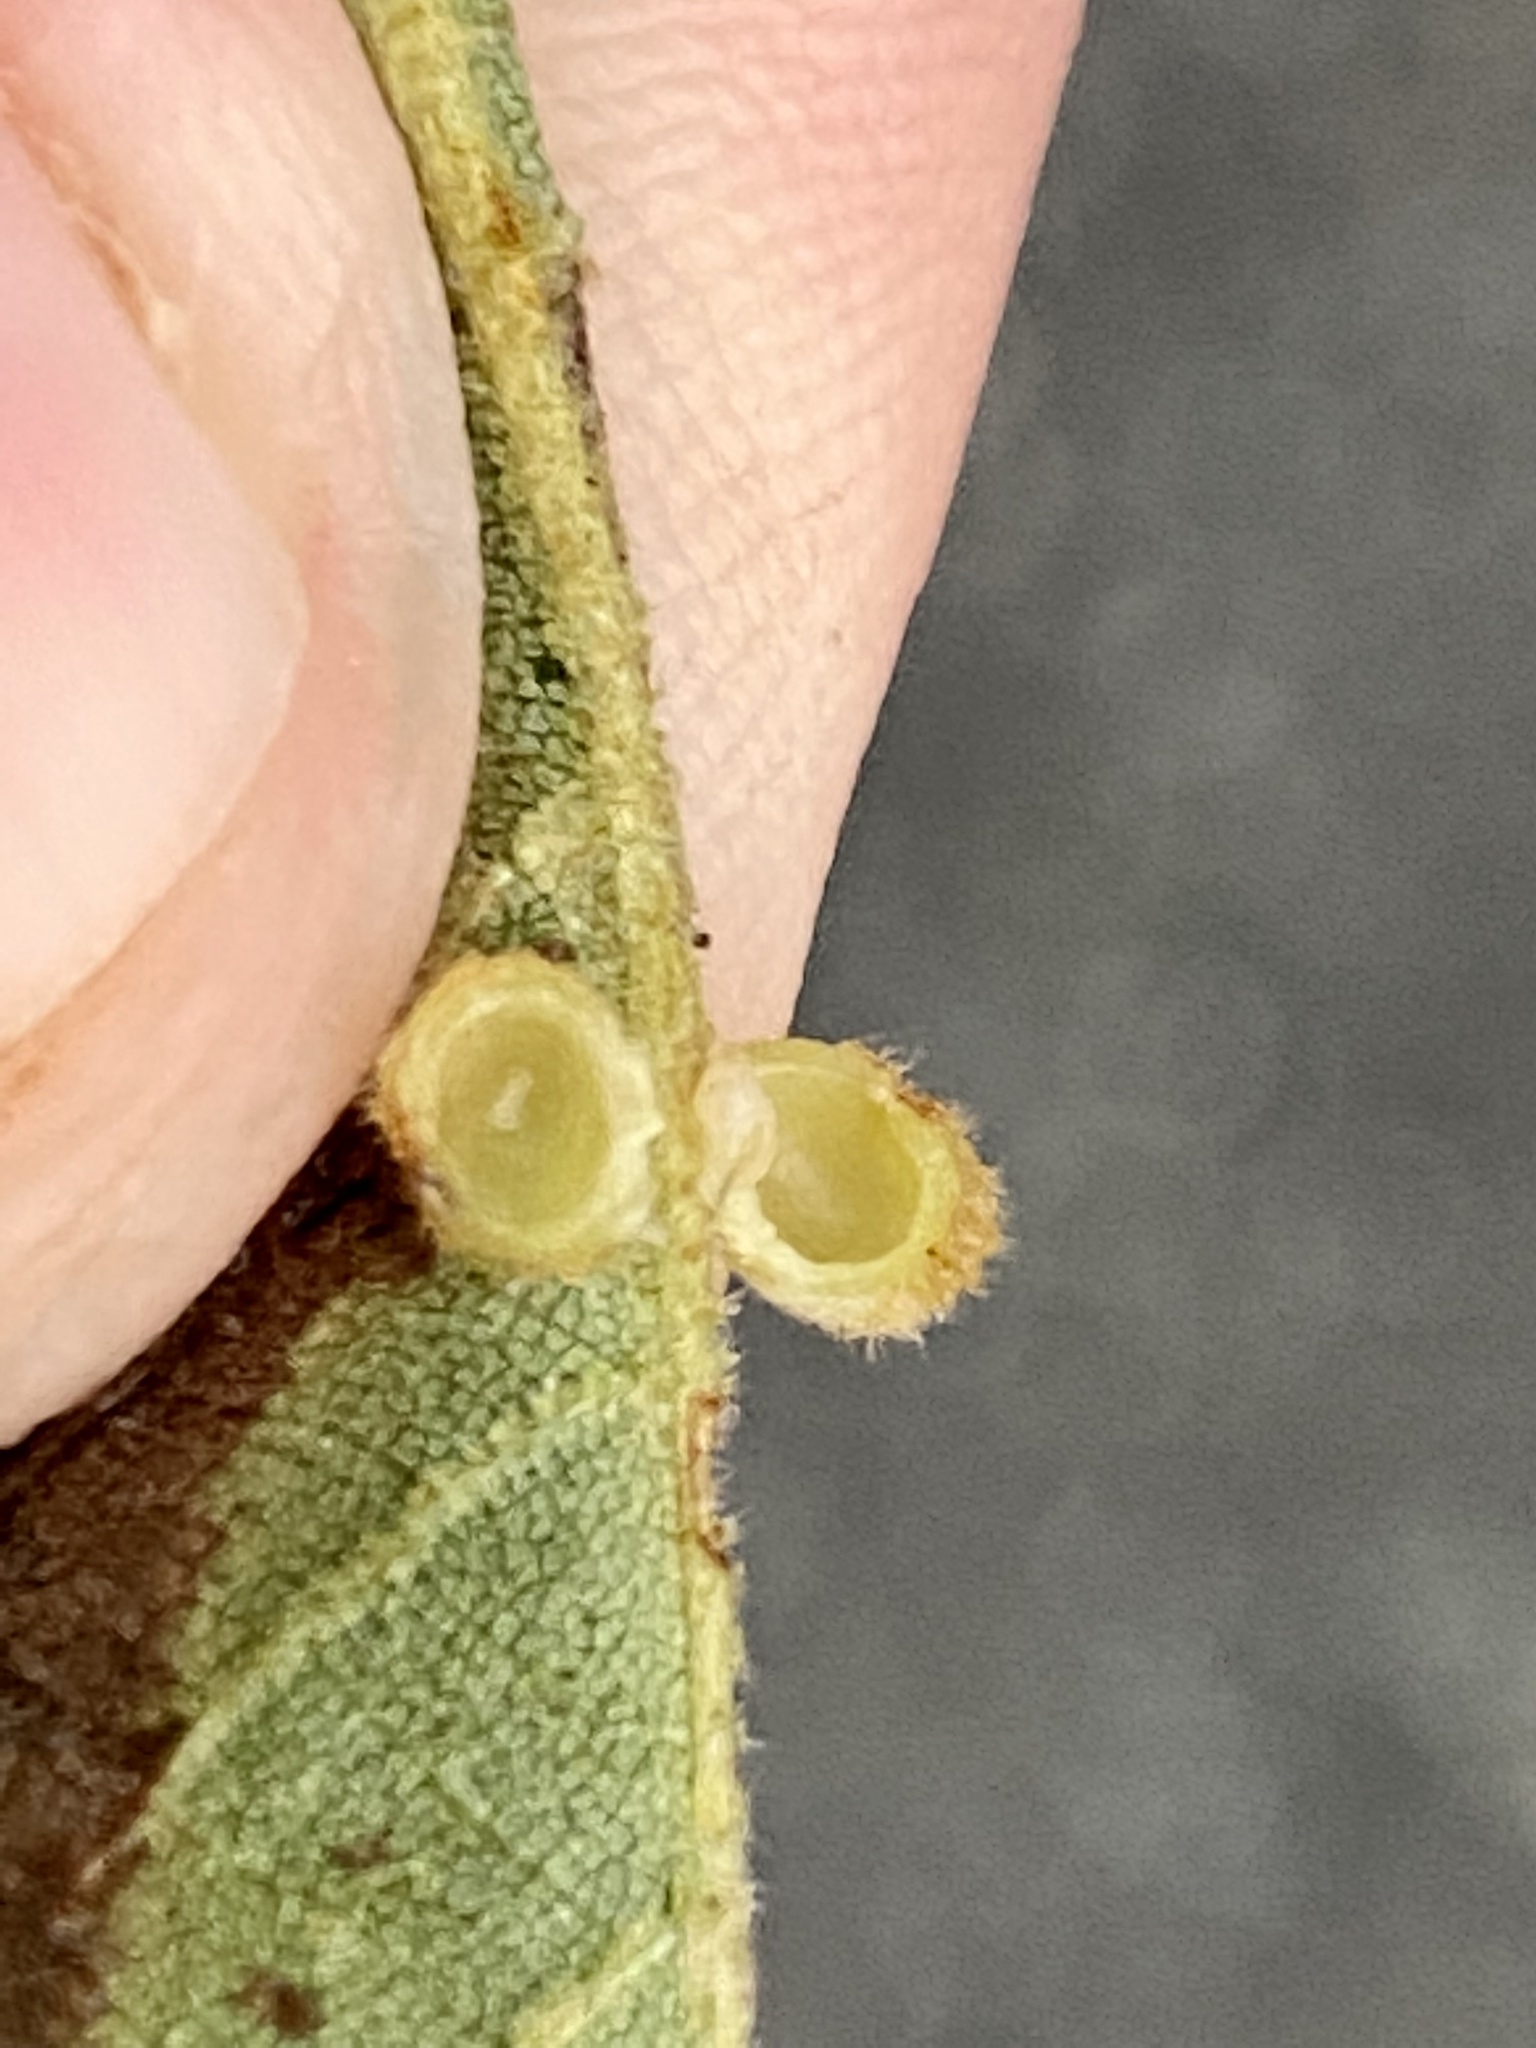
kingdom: Animalia
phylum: Arthropoda
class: Insecta
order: Diptera
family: Cecidomyiidae
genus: Caryomyia
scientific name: Caryomyia hirtiglobus
